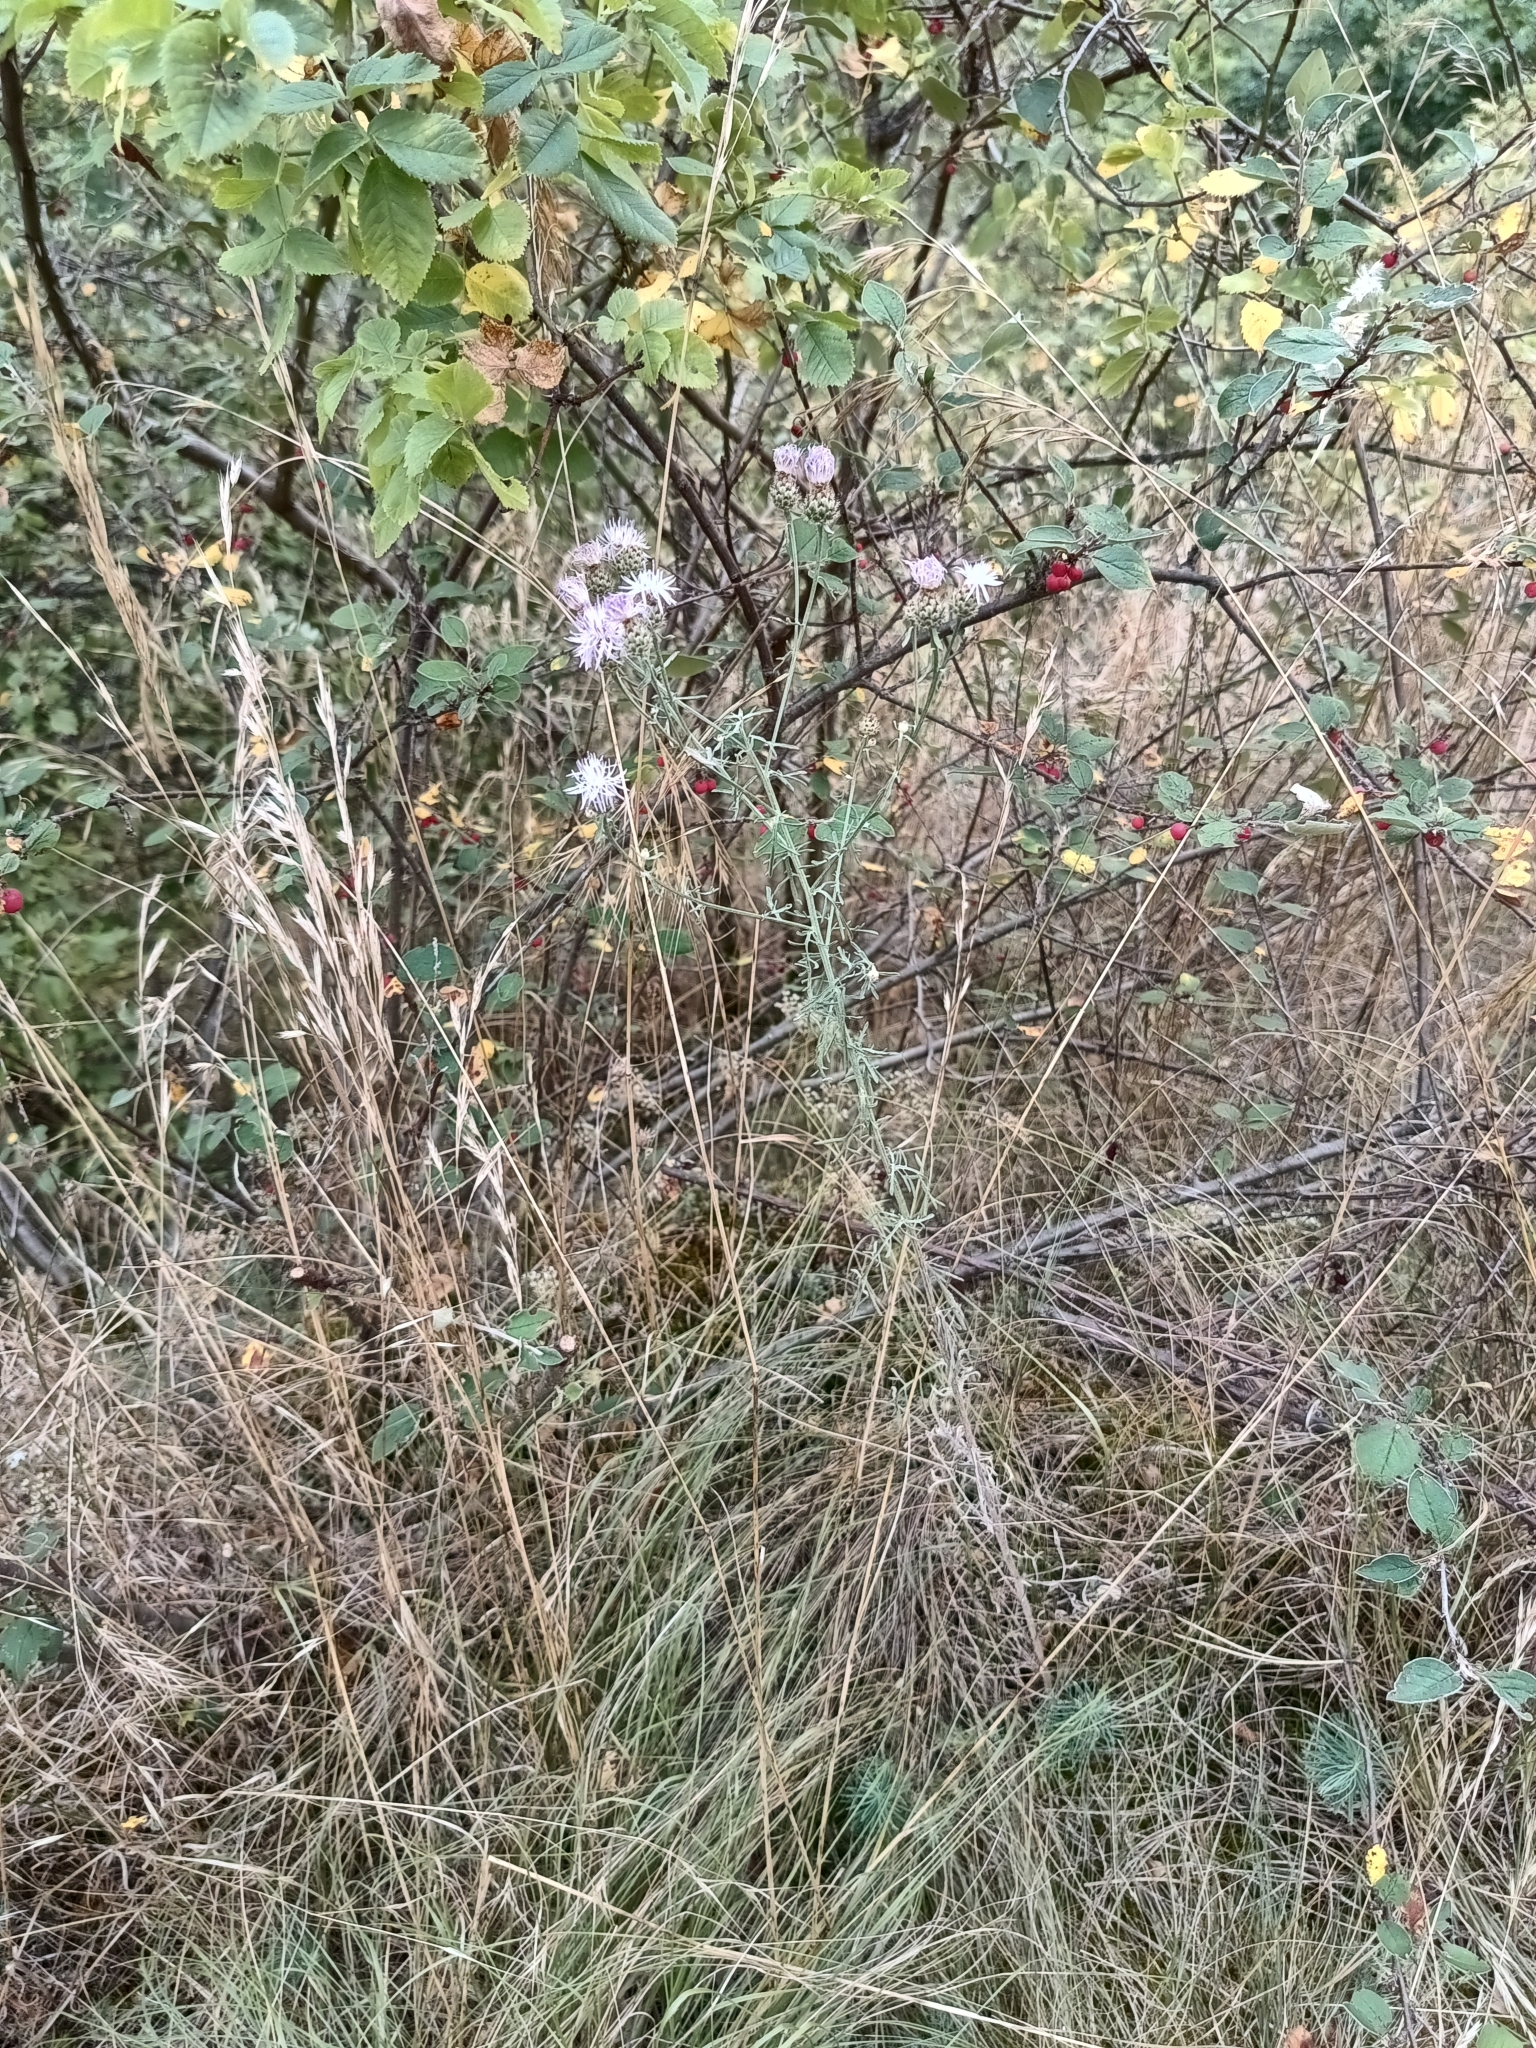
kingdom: Plantae
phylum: Tracheophyta
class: Magnoliopsida
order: Asterales
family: Asteraceae
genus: Centaurea
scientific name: Centaurea stoebe
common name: Spotted knapweed
